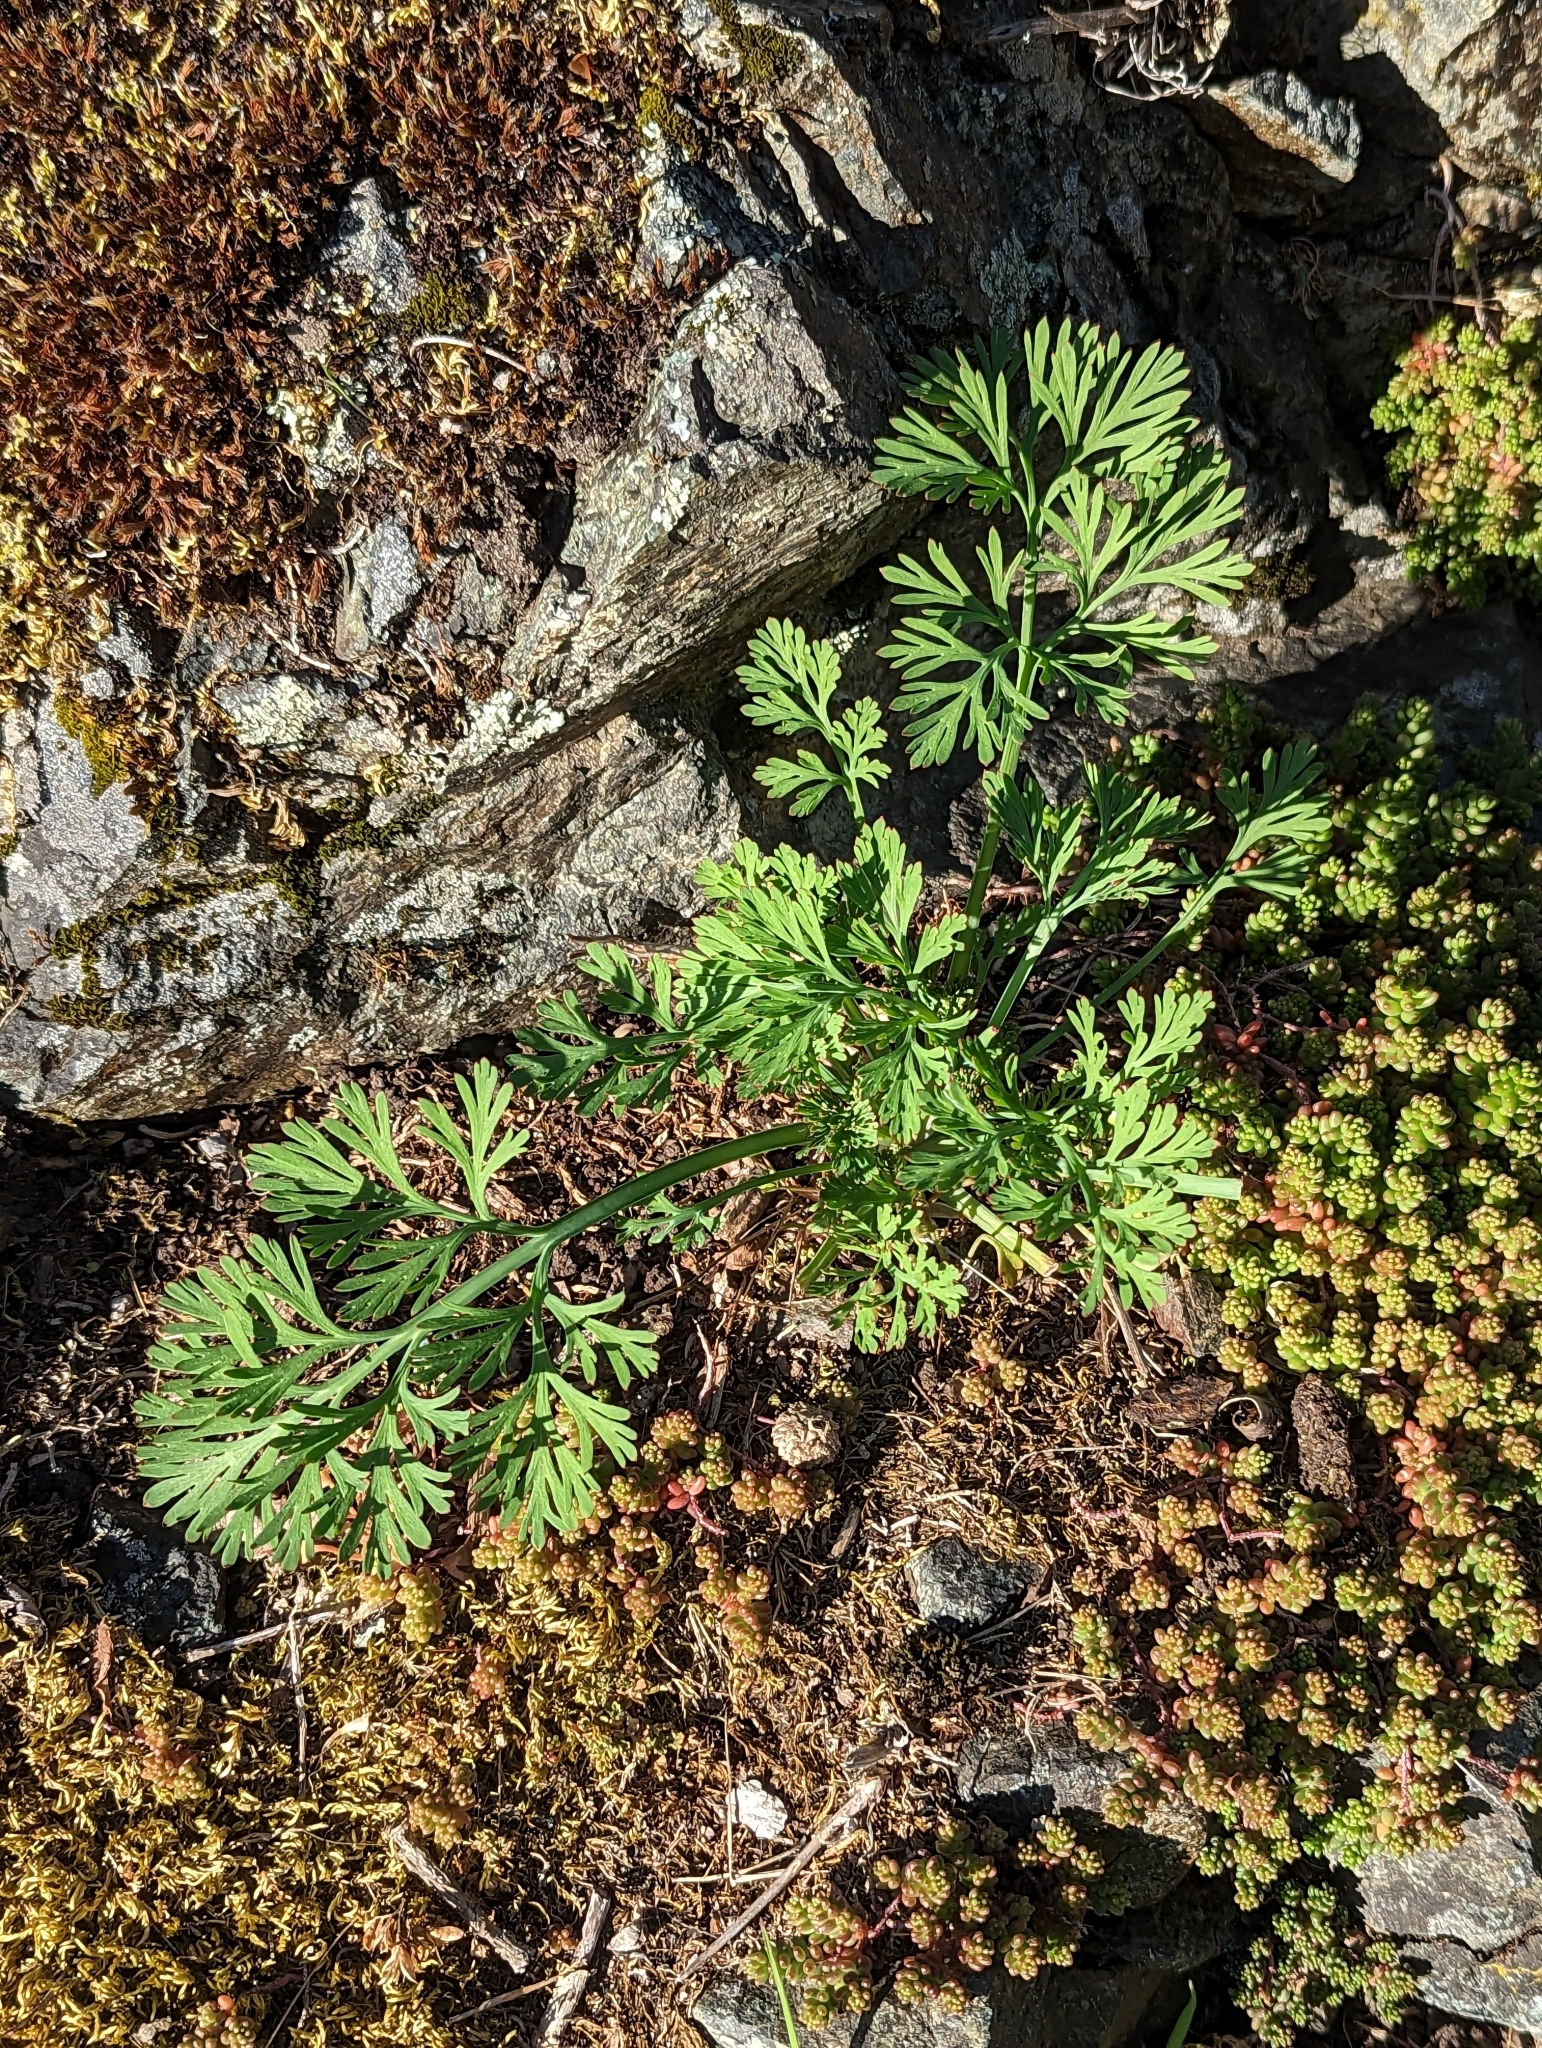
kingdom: Plantae
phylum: Tracheophyta
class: Magnoliopsida
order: Ranunculales
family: Papaveraceae
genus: Eschscholzia
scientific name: Eschscholzia californica
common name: California poppy
